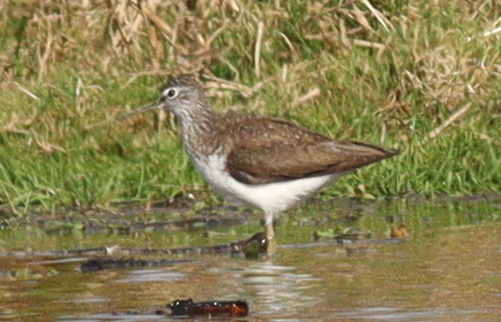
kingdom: Animalia
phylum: Chordata
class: Aves
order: Charadriiformes
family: Scolopacidae
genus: Tringa
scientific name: Tringa ochropus
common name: Green sandpiper
